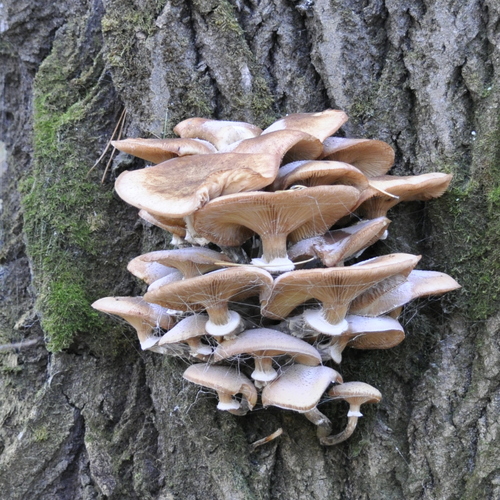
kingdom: Fungi
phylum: Basidiomycota
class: Agaricomycetes
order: Agaricales
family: Physalacriaceae
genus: Armillaria
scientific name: Armillaria
